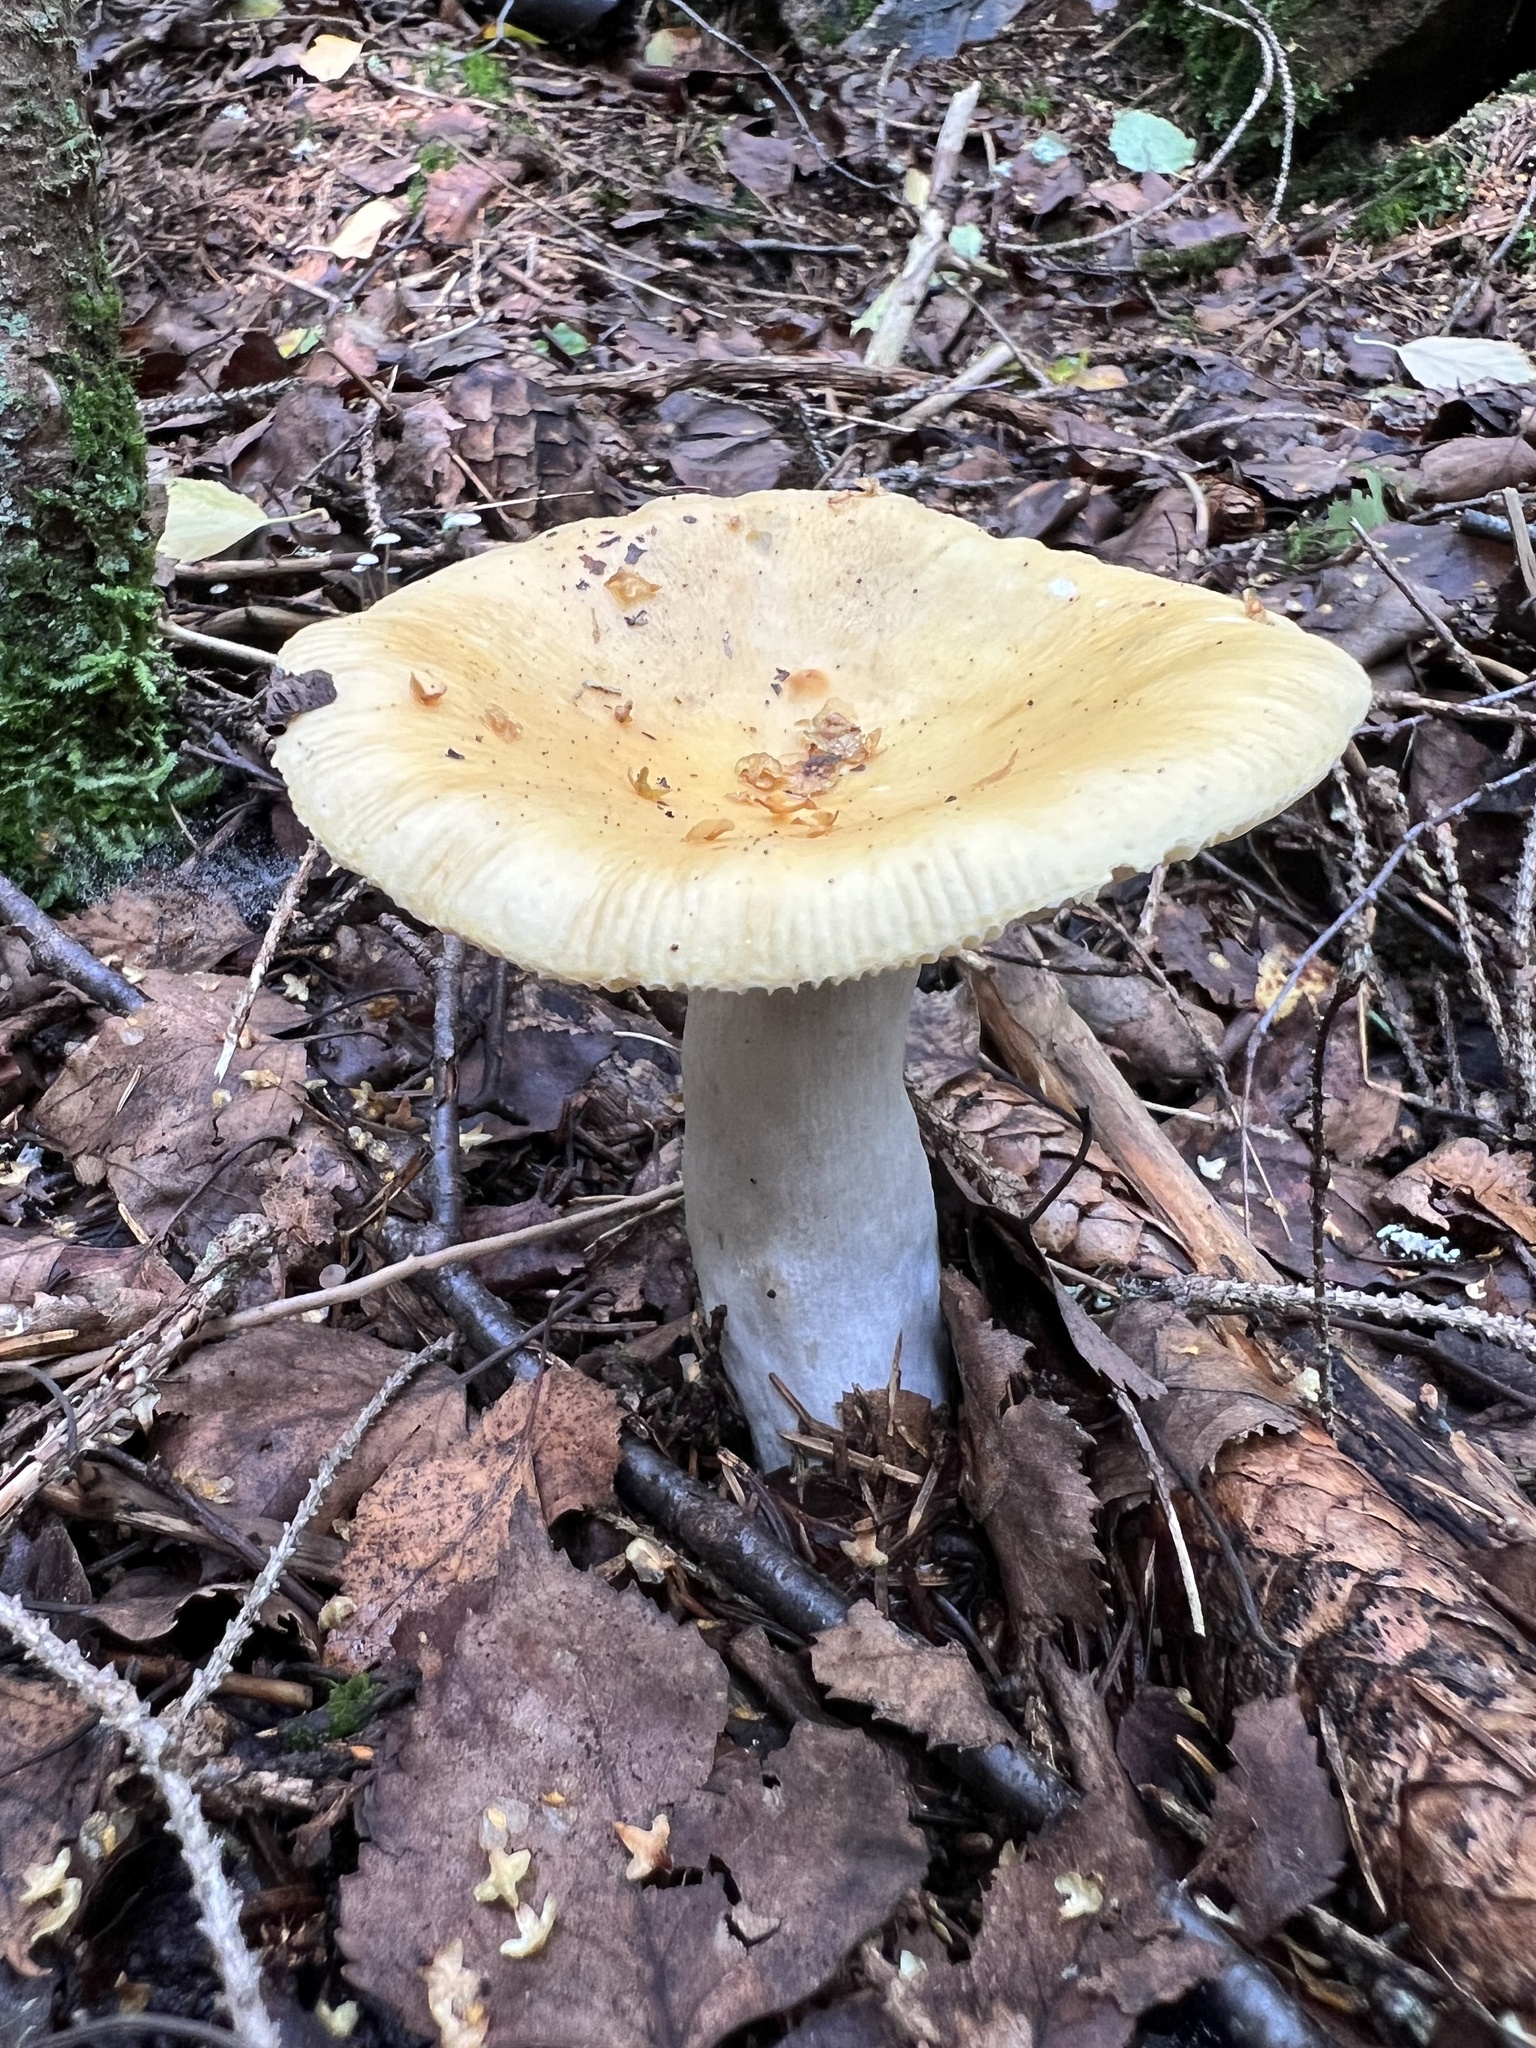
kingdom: Fungi
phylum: Basidiomycota
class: Agaricomycetes
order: Russulales
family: Russulaceae
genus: Russula
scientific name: Russula claroflava
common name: The yellow swamp brittlegill
